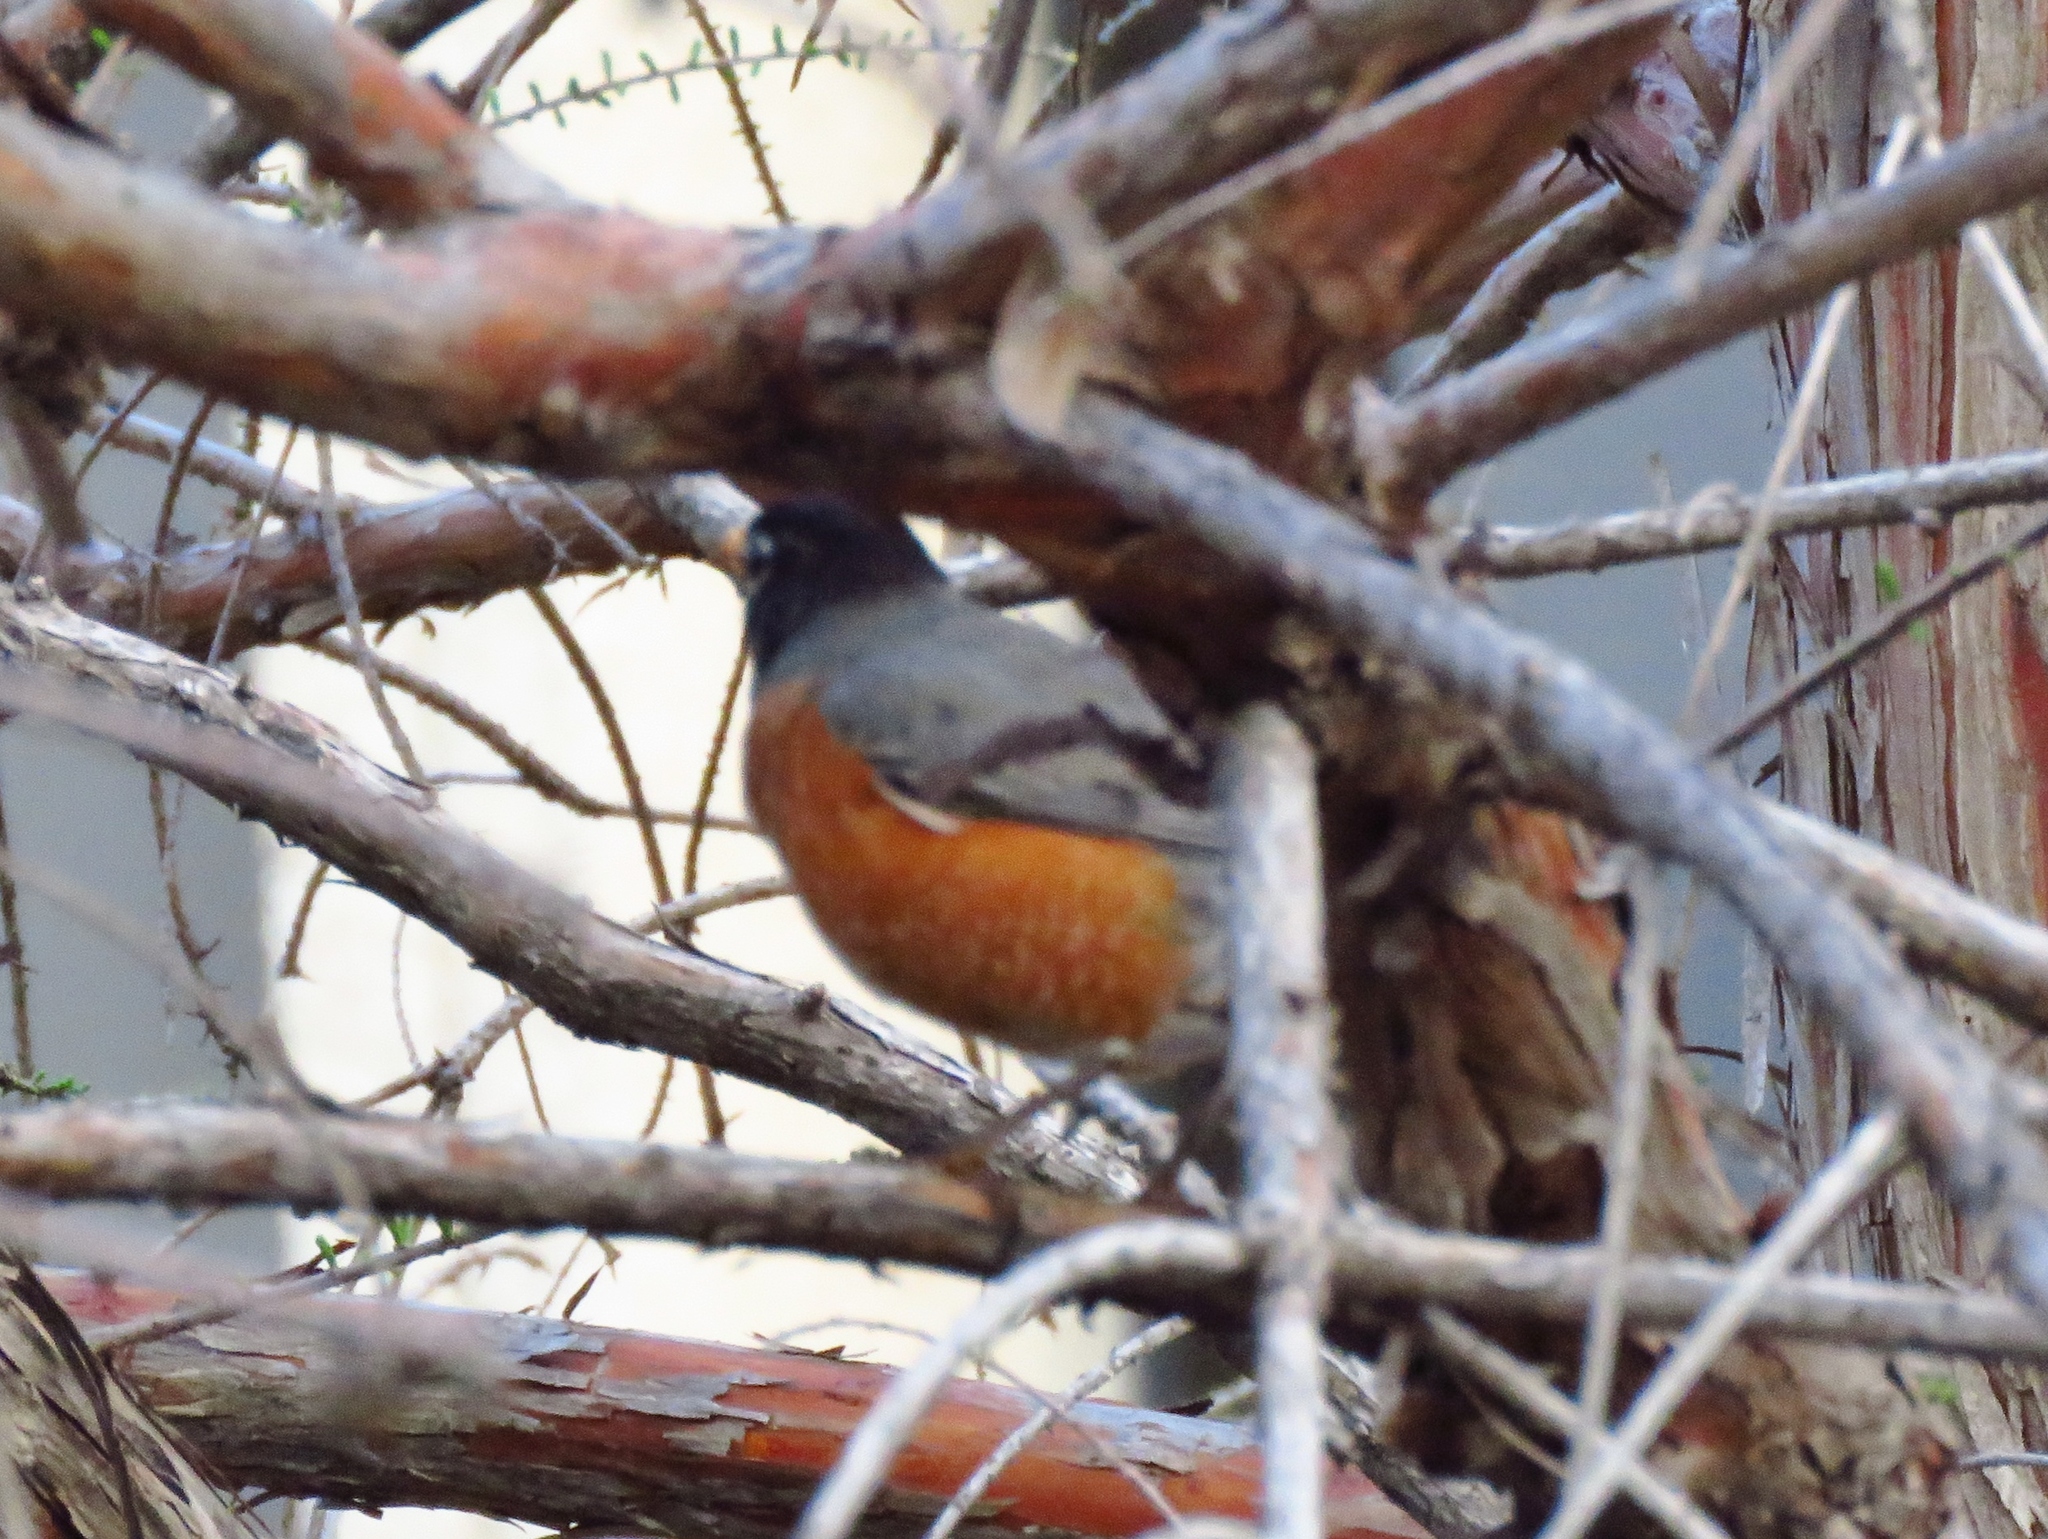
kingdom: Animalia
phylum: Chordata
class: Aves
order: Passeriformes
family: Turdidae
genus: Turdus
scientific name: Turdus migratorius
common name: American robin
